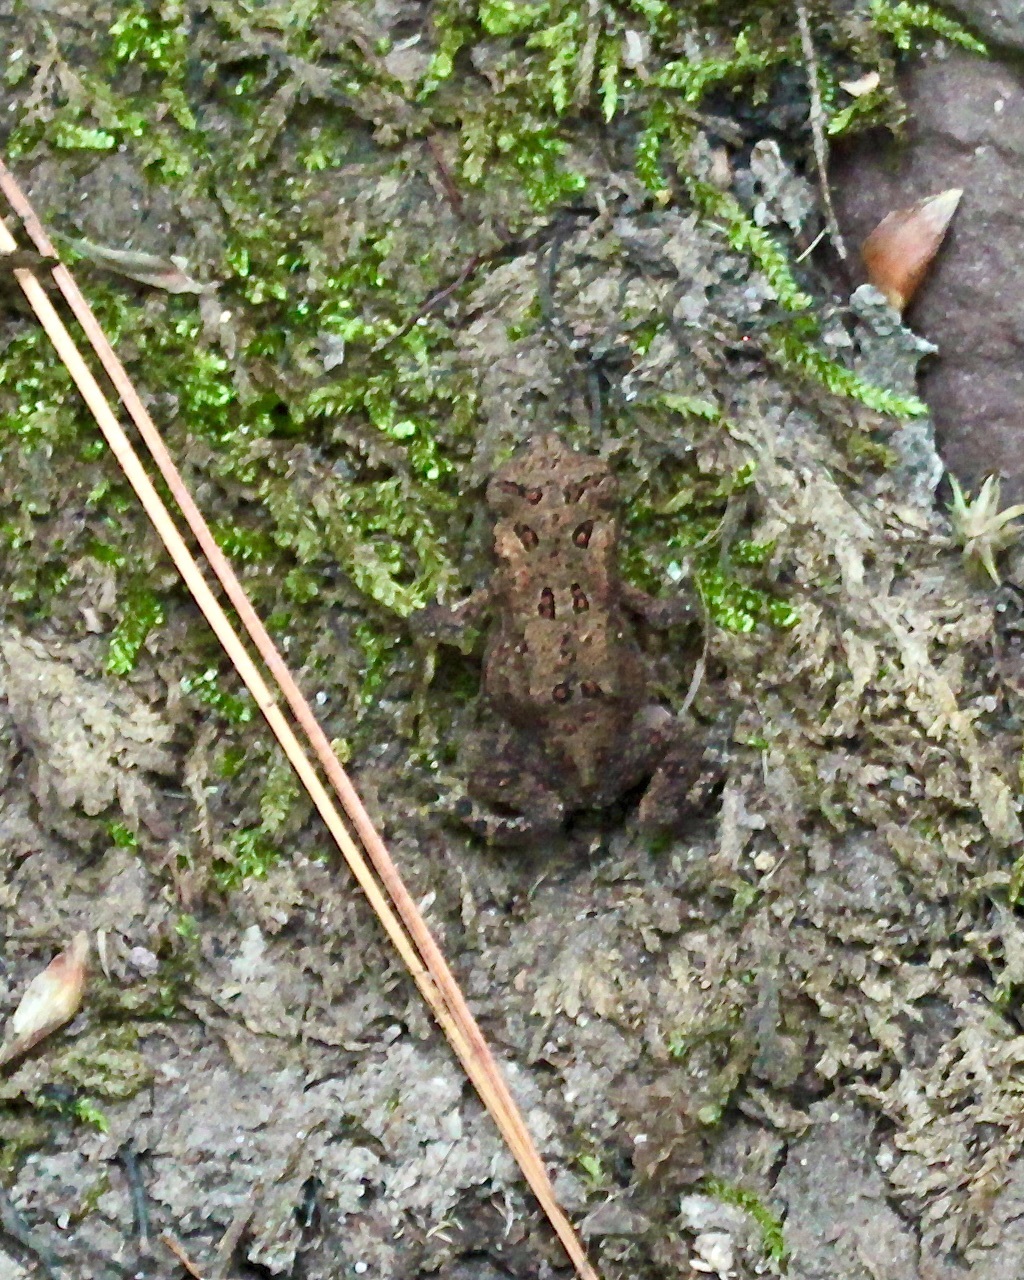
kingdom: Animalia
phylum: Chordata
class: Amphibia
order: Anura
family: Bufonidae
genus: Anaxyrus
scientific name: Anaxyrus americanus
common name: American toad
